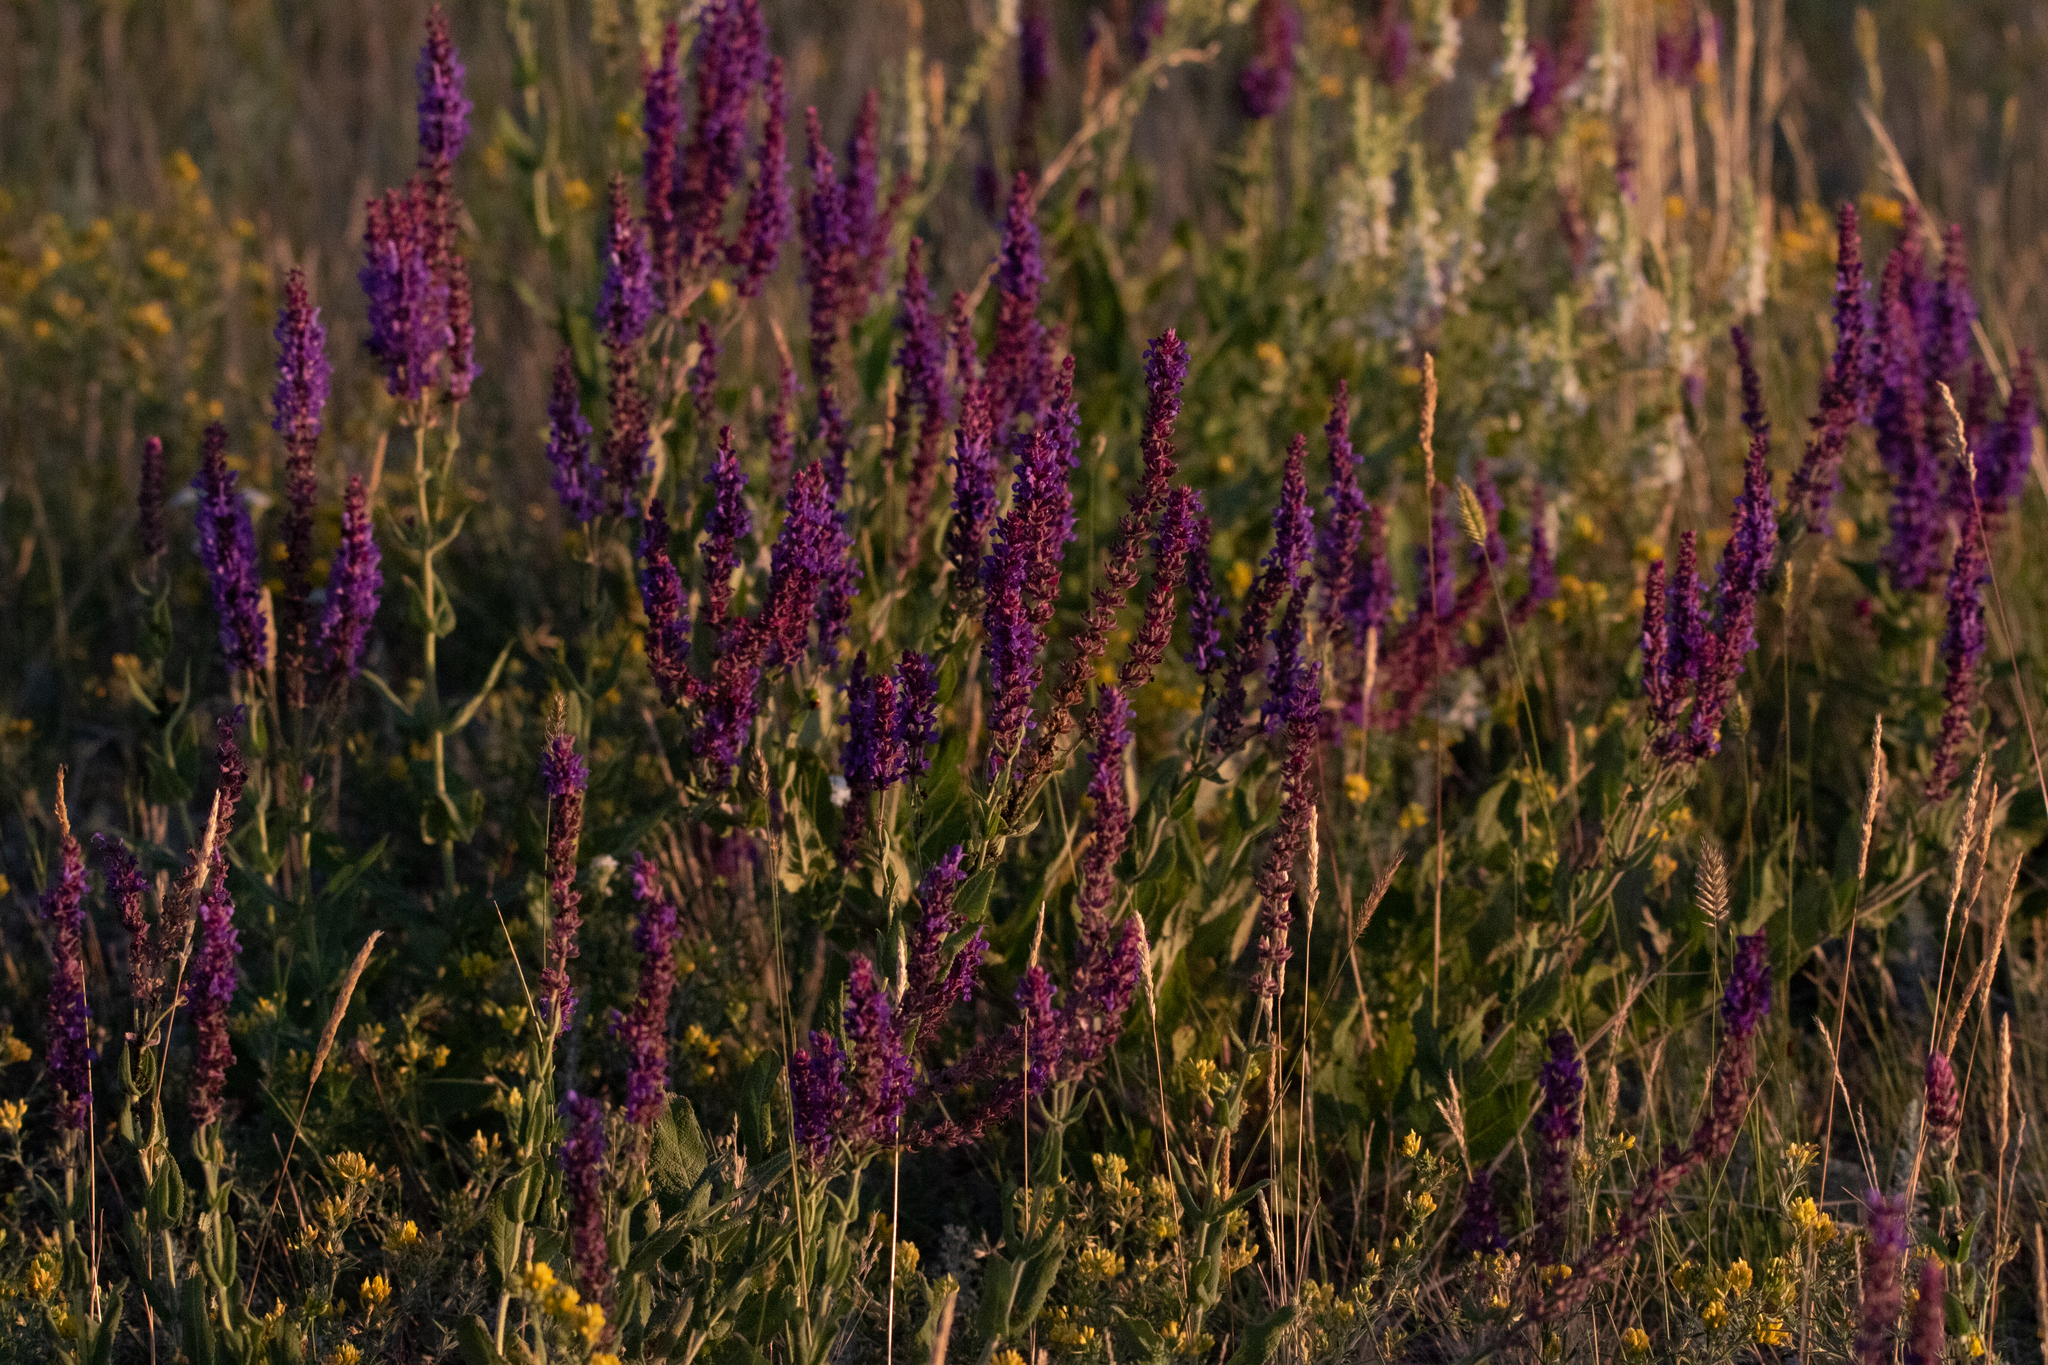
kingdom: Plantae
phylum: Tracheophyta
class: Magnoliopsida
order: Lamiales
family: Lamiaceae
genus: Salvia
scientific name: Salvia nemorosa
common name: Balkan clary
